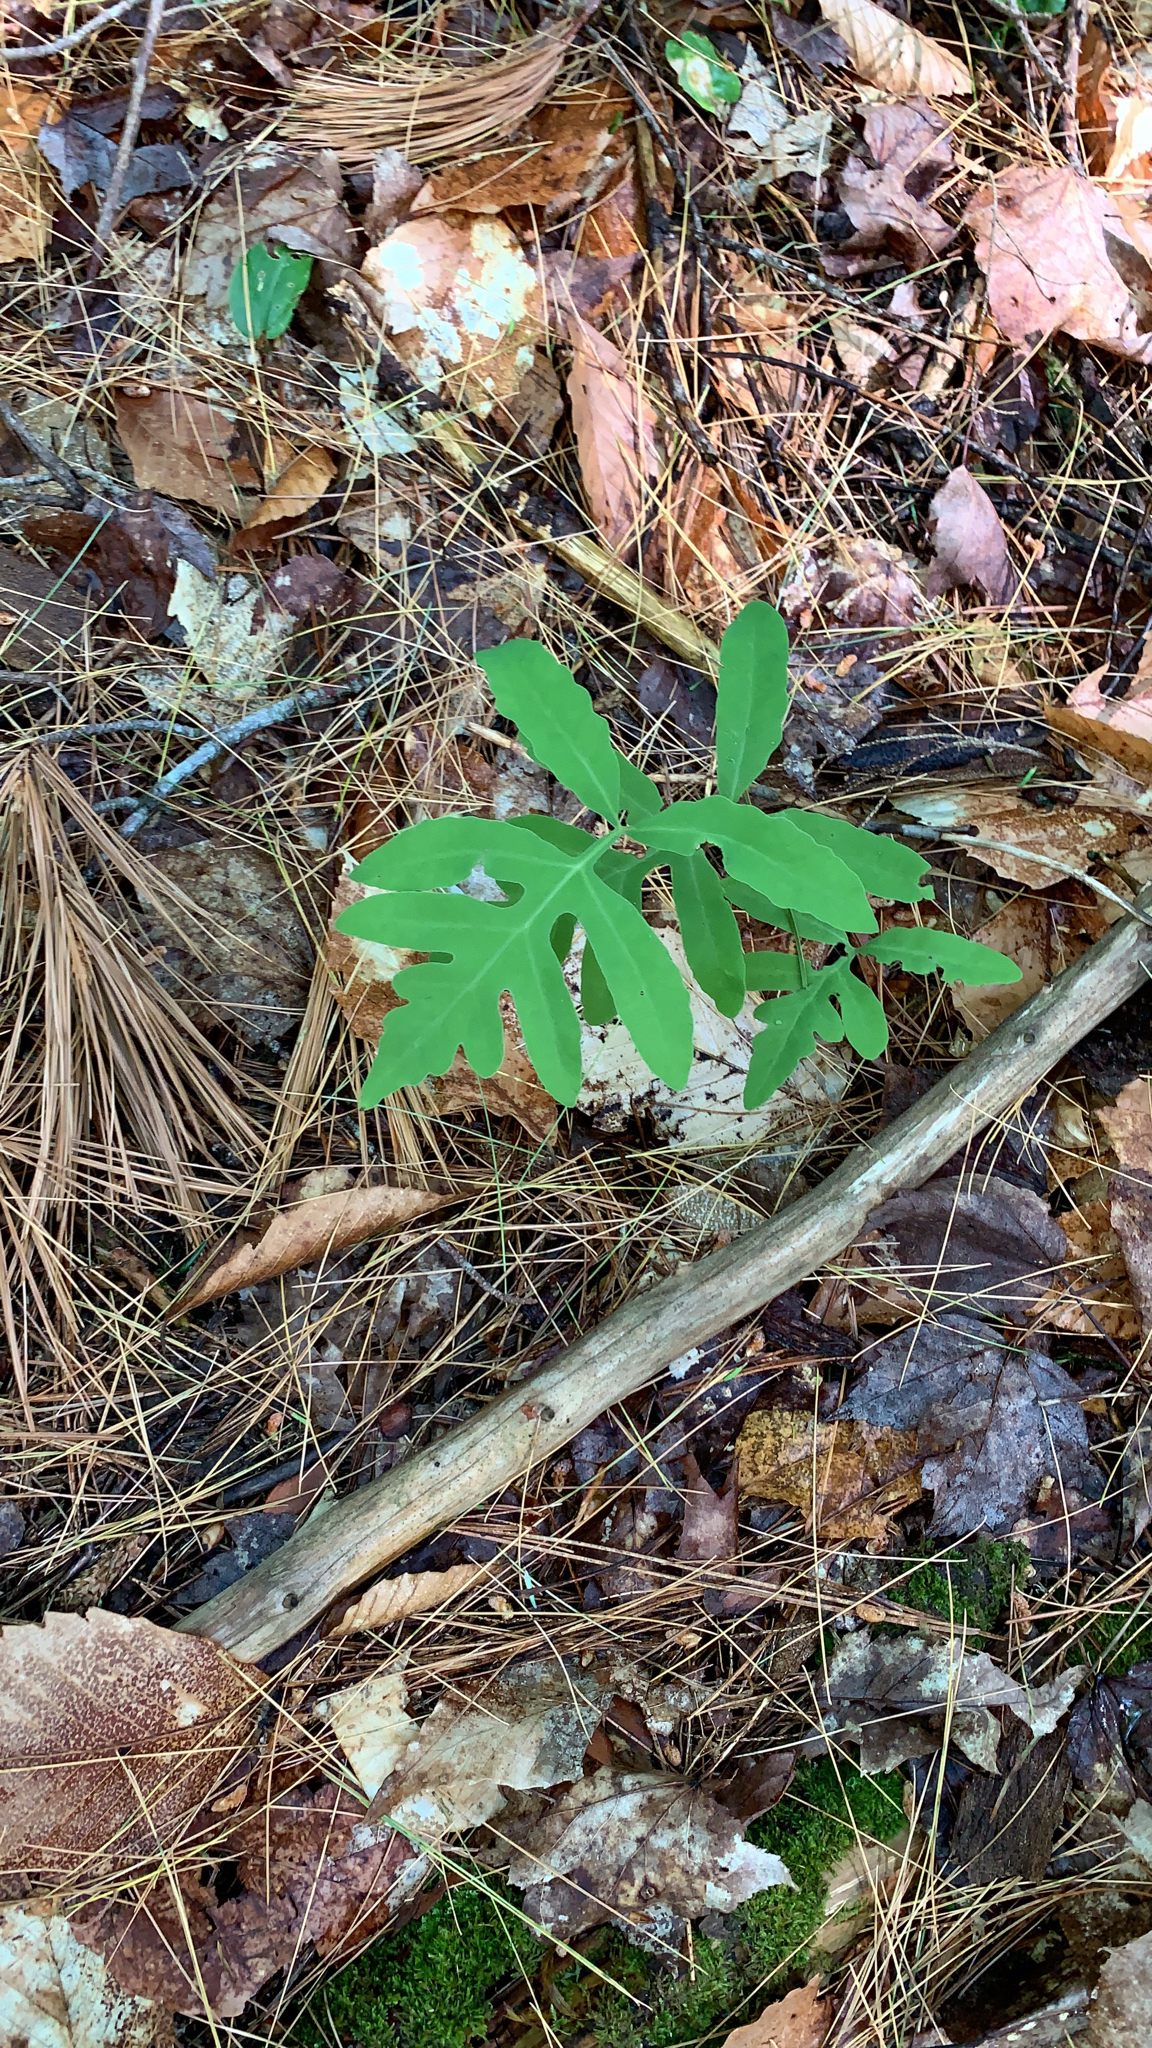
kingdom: Plantae
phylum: Tracheophyta
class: Polypodiopsida
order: Polypodiales
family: Onocleaceae
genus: Onoclea
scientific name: Onoclea sensibilis
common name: Sensitive fern
